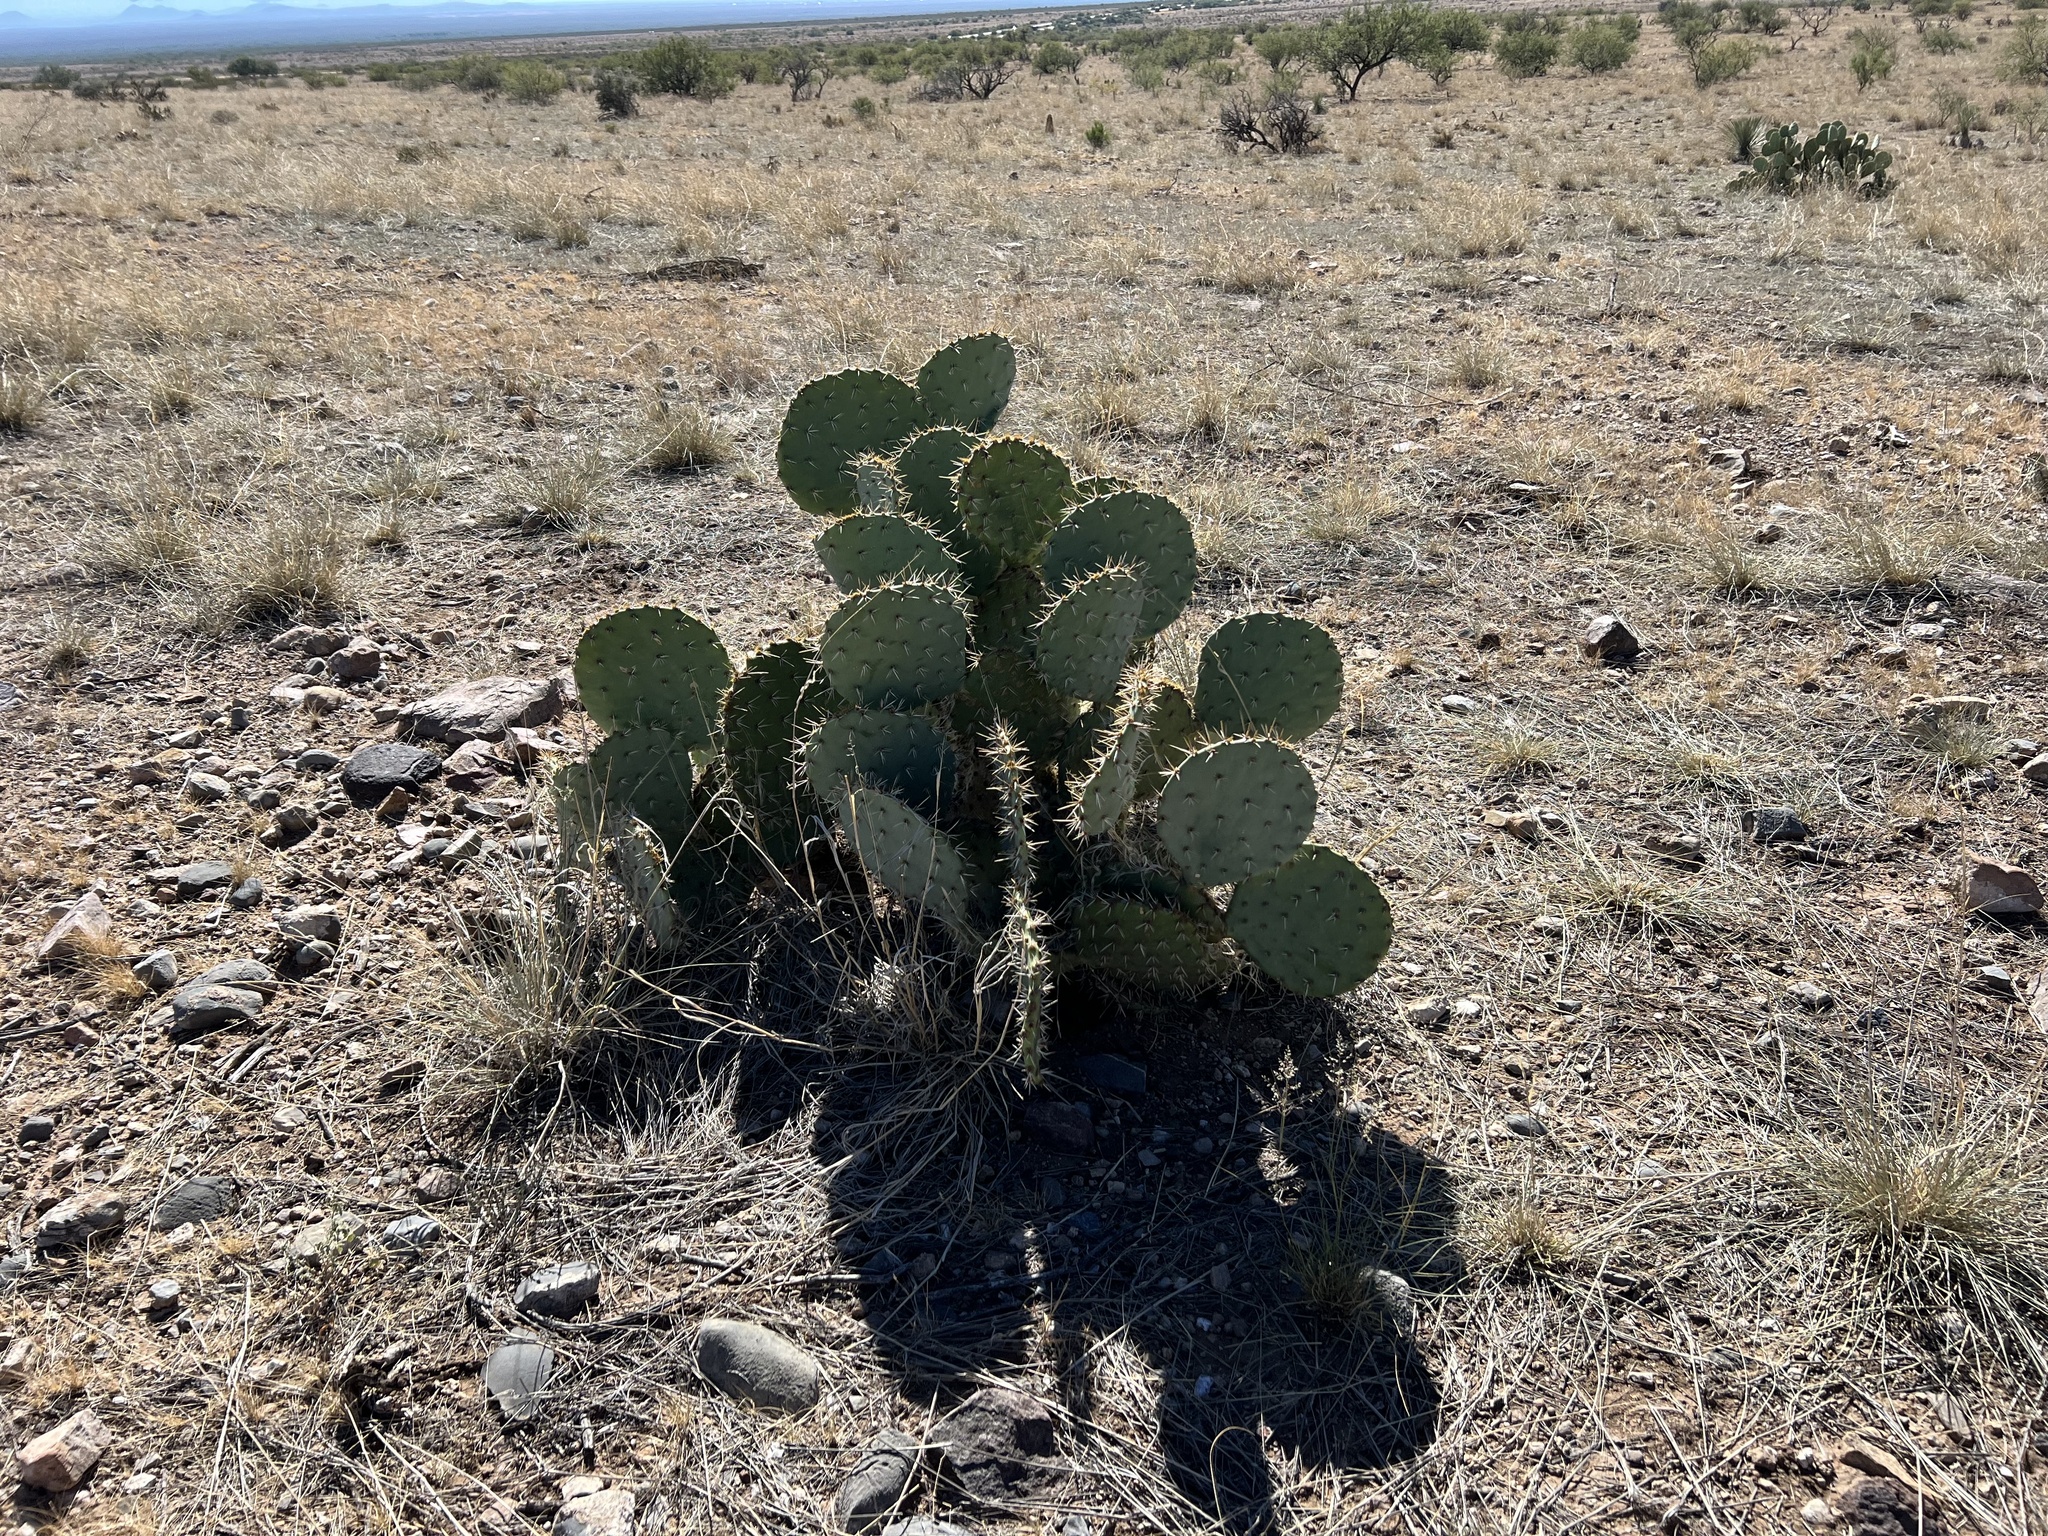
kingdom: Plantae
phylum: Tracheophyta
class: Magnoliopsida
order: Caryophyllales
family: Cactaceae
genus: Opuntia
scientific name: Opuntia engelmannii
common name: Cactus-apple
